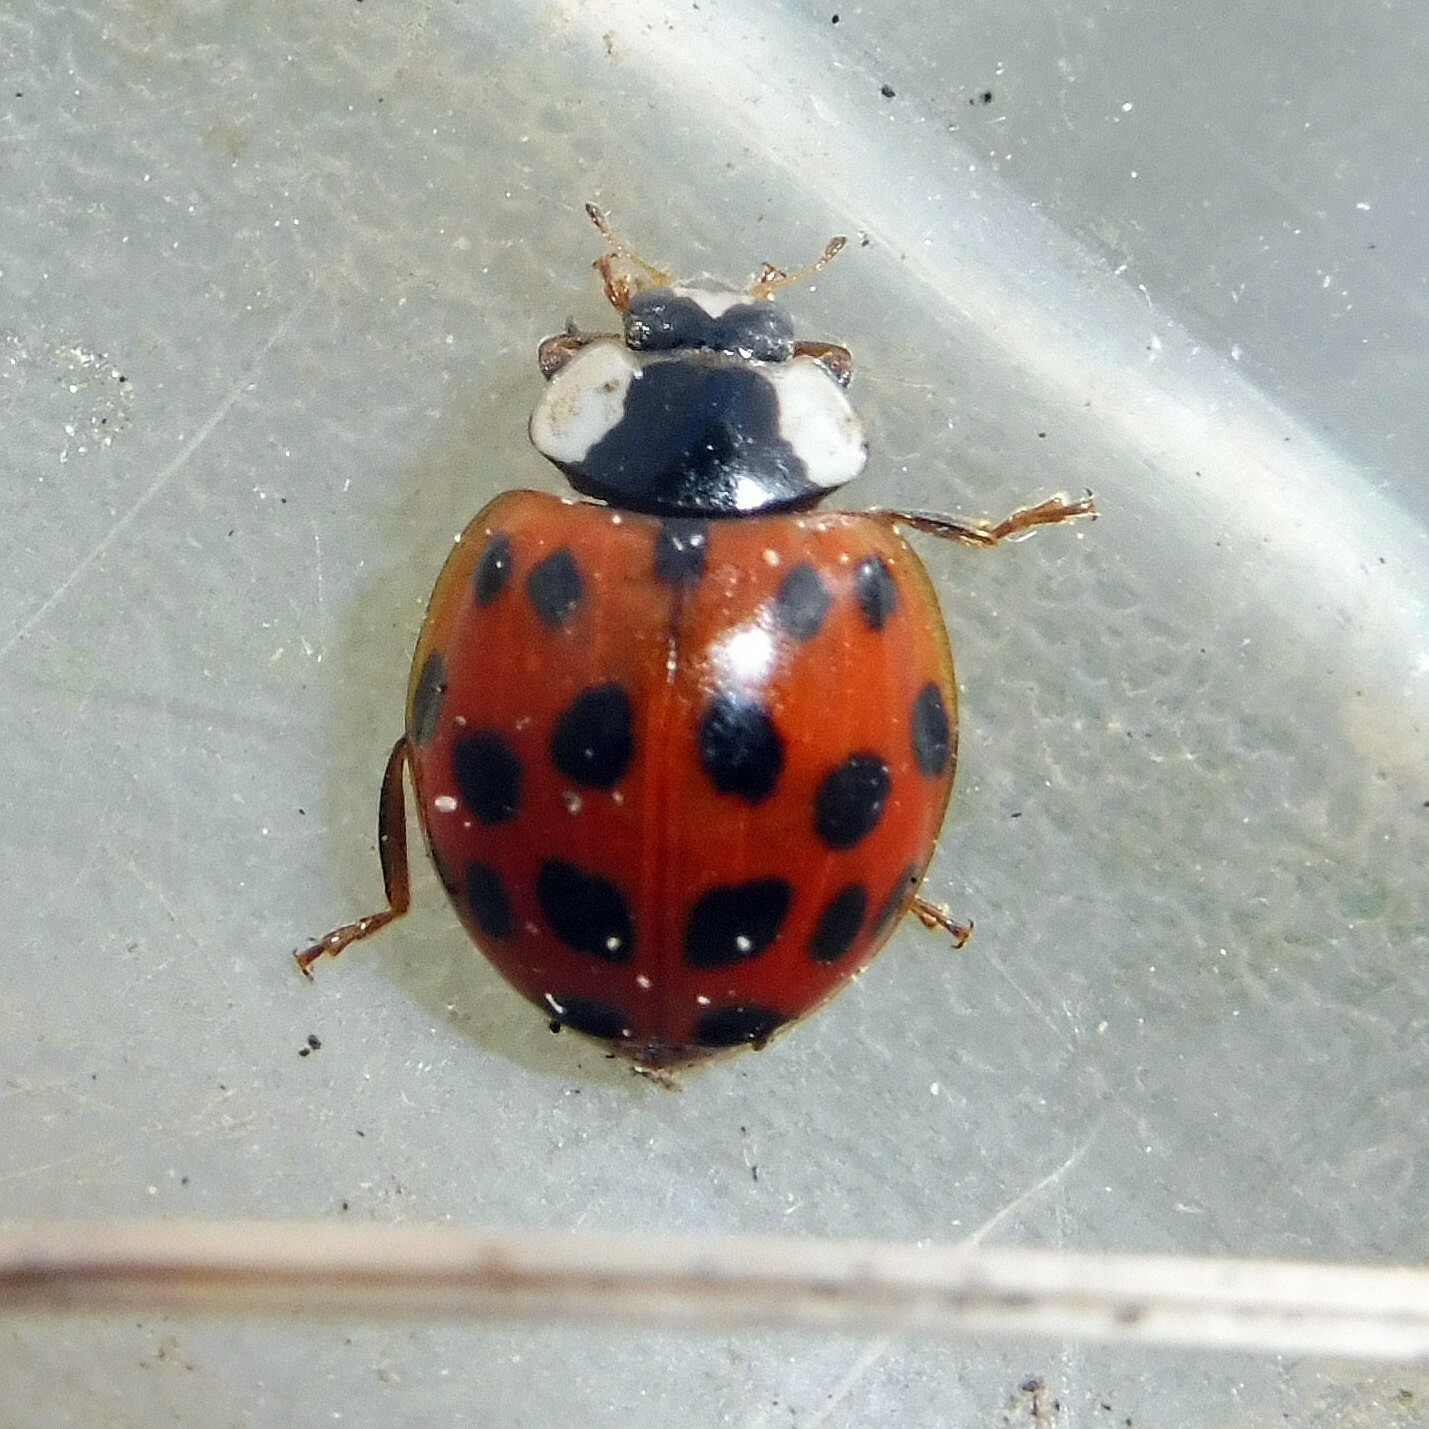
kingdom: Animalia
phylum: Arthropoda
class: Insecta
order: Coleoptera
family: Coccinellidae
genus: Harmonia
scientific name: Harmonia axyridis
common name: Harlequin ladybird
